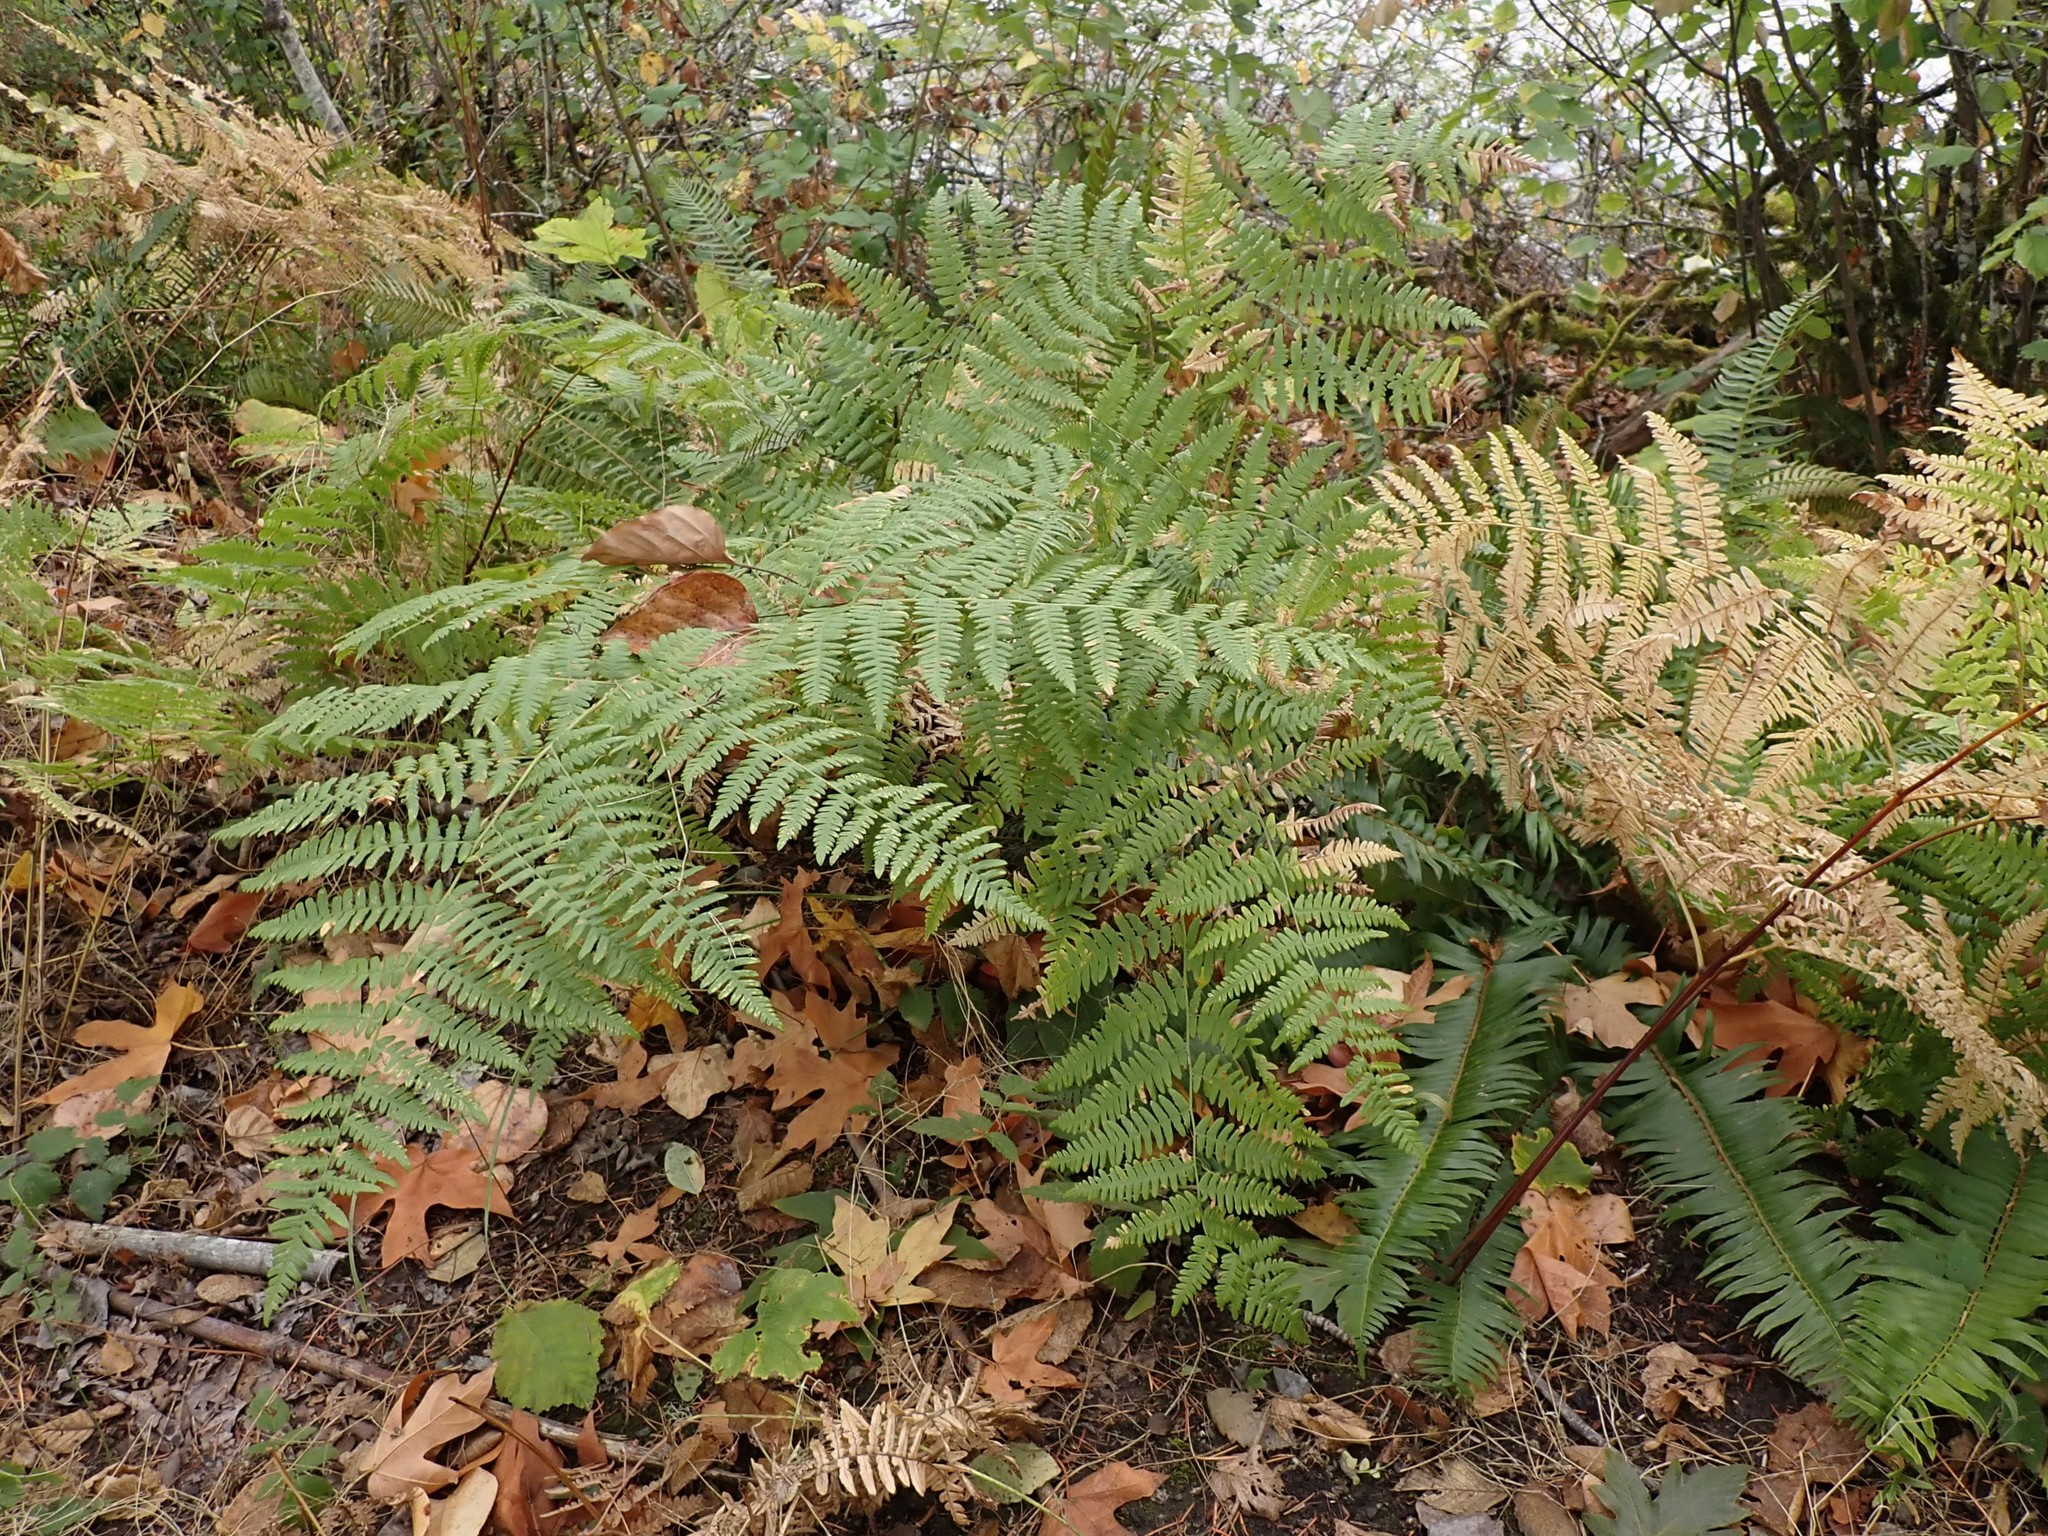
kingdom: Plantae
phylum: Tracheophyta
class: Polypodiopsida
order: Polypodiales
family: Dennstaedtiaceae
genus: Pteridium
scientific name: Pteridium aquilinum
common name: Bracken
